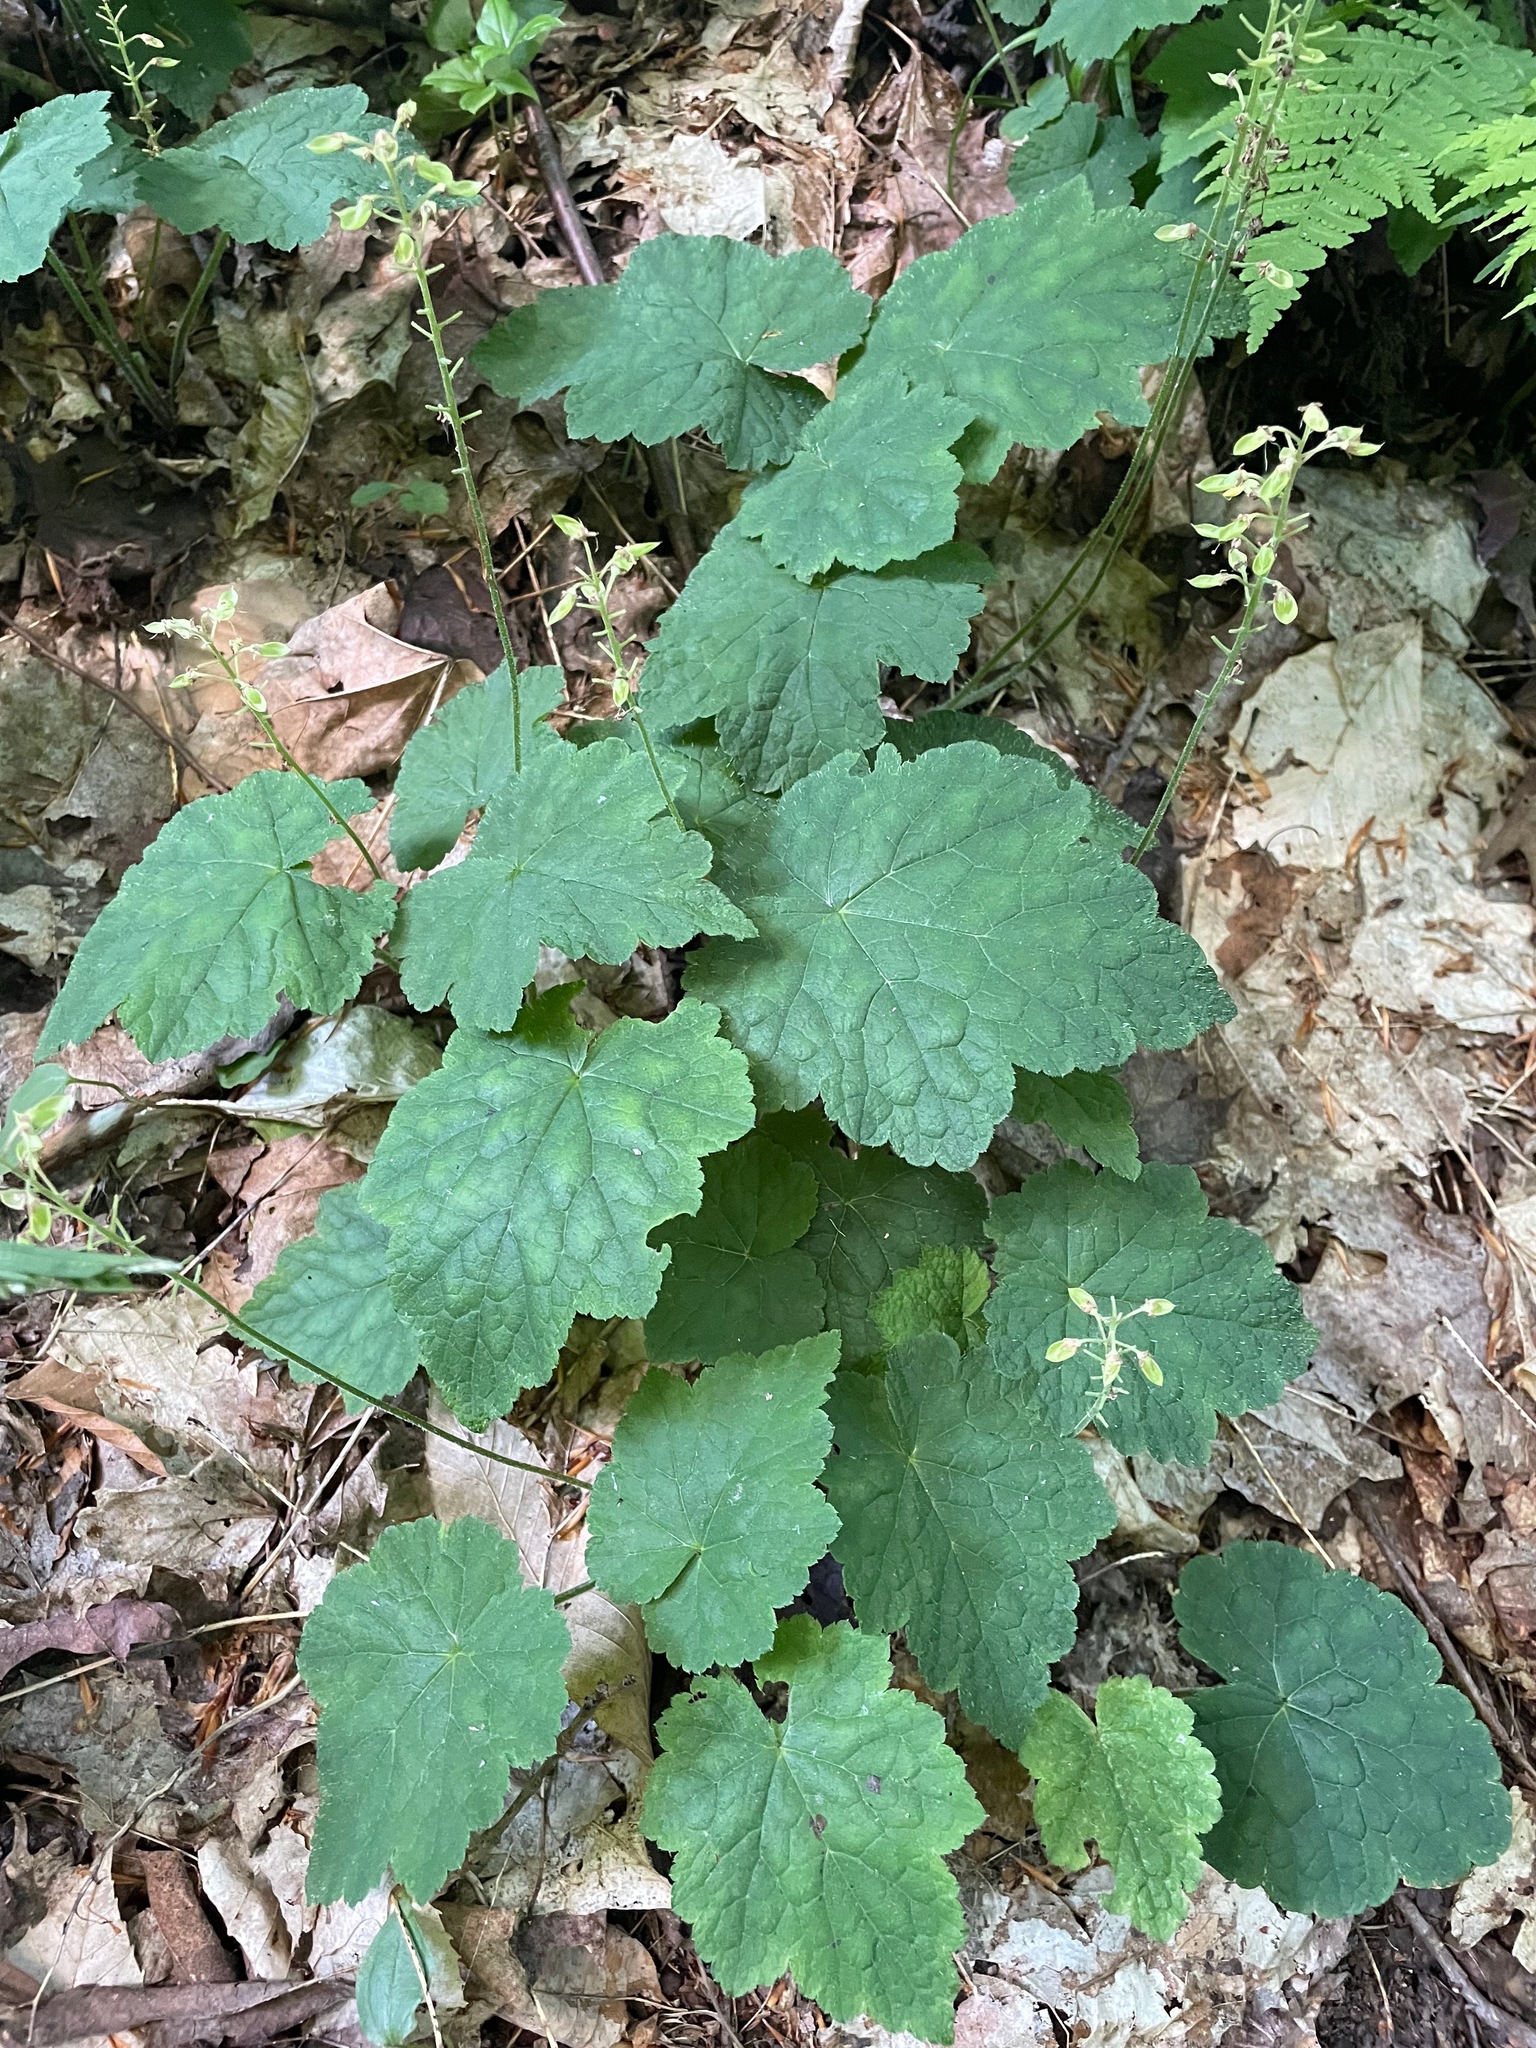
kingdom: Plantae
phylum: Tracheophyta
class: Magnoliopsida
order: Saxifragales
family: Saxifragaceae
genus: Tiarella
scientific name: Tiarella stolonifera
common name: Stoloniferous foamflower
